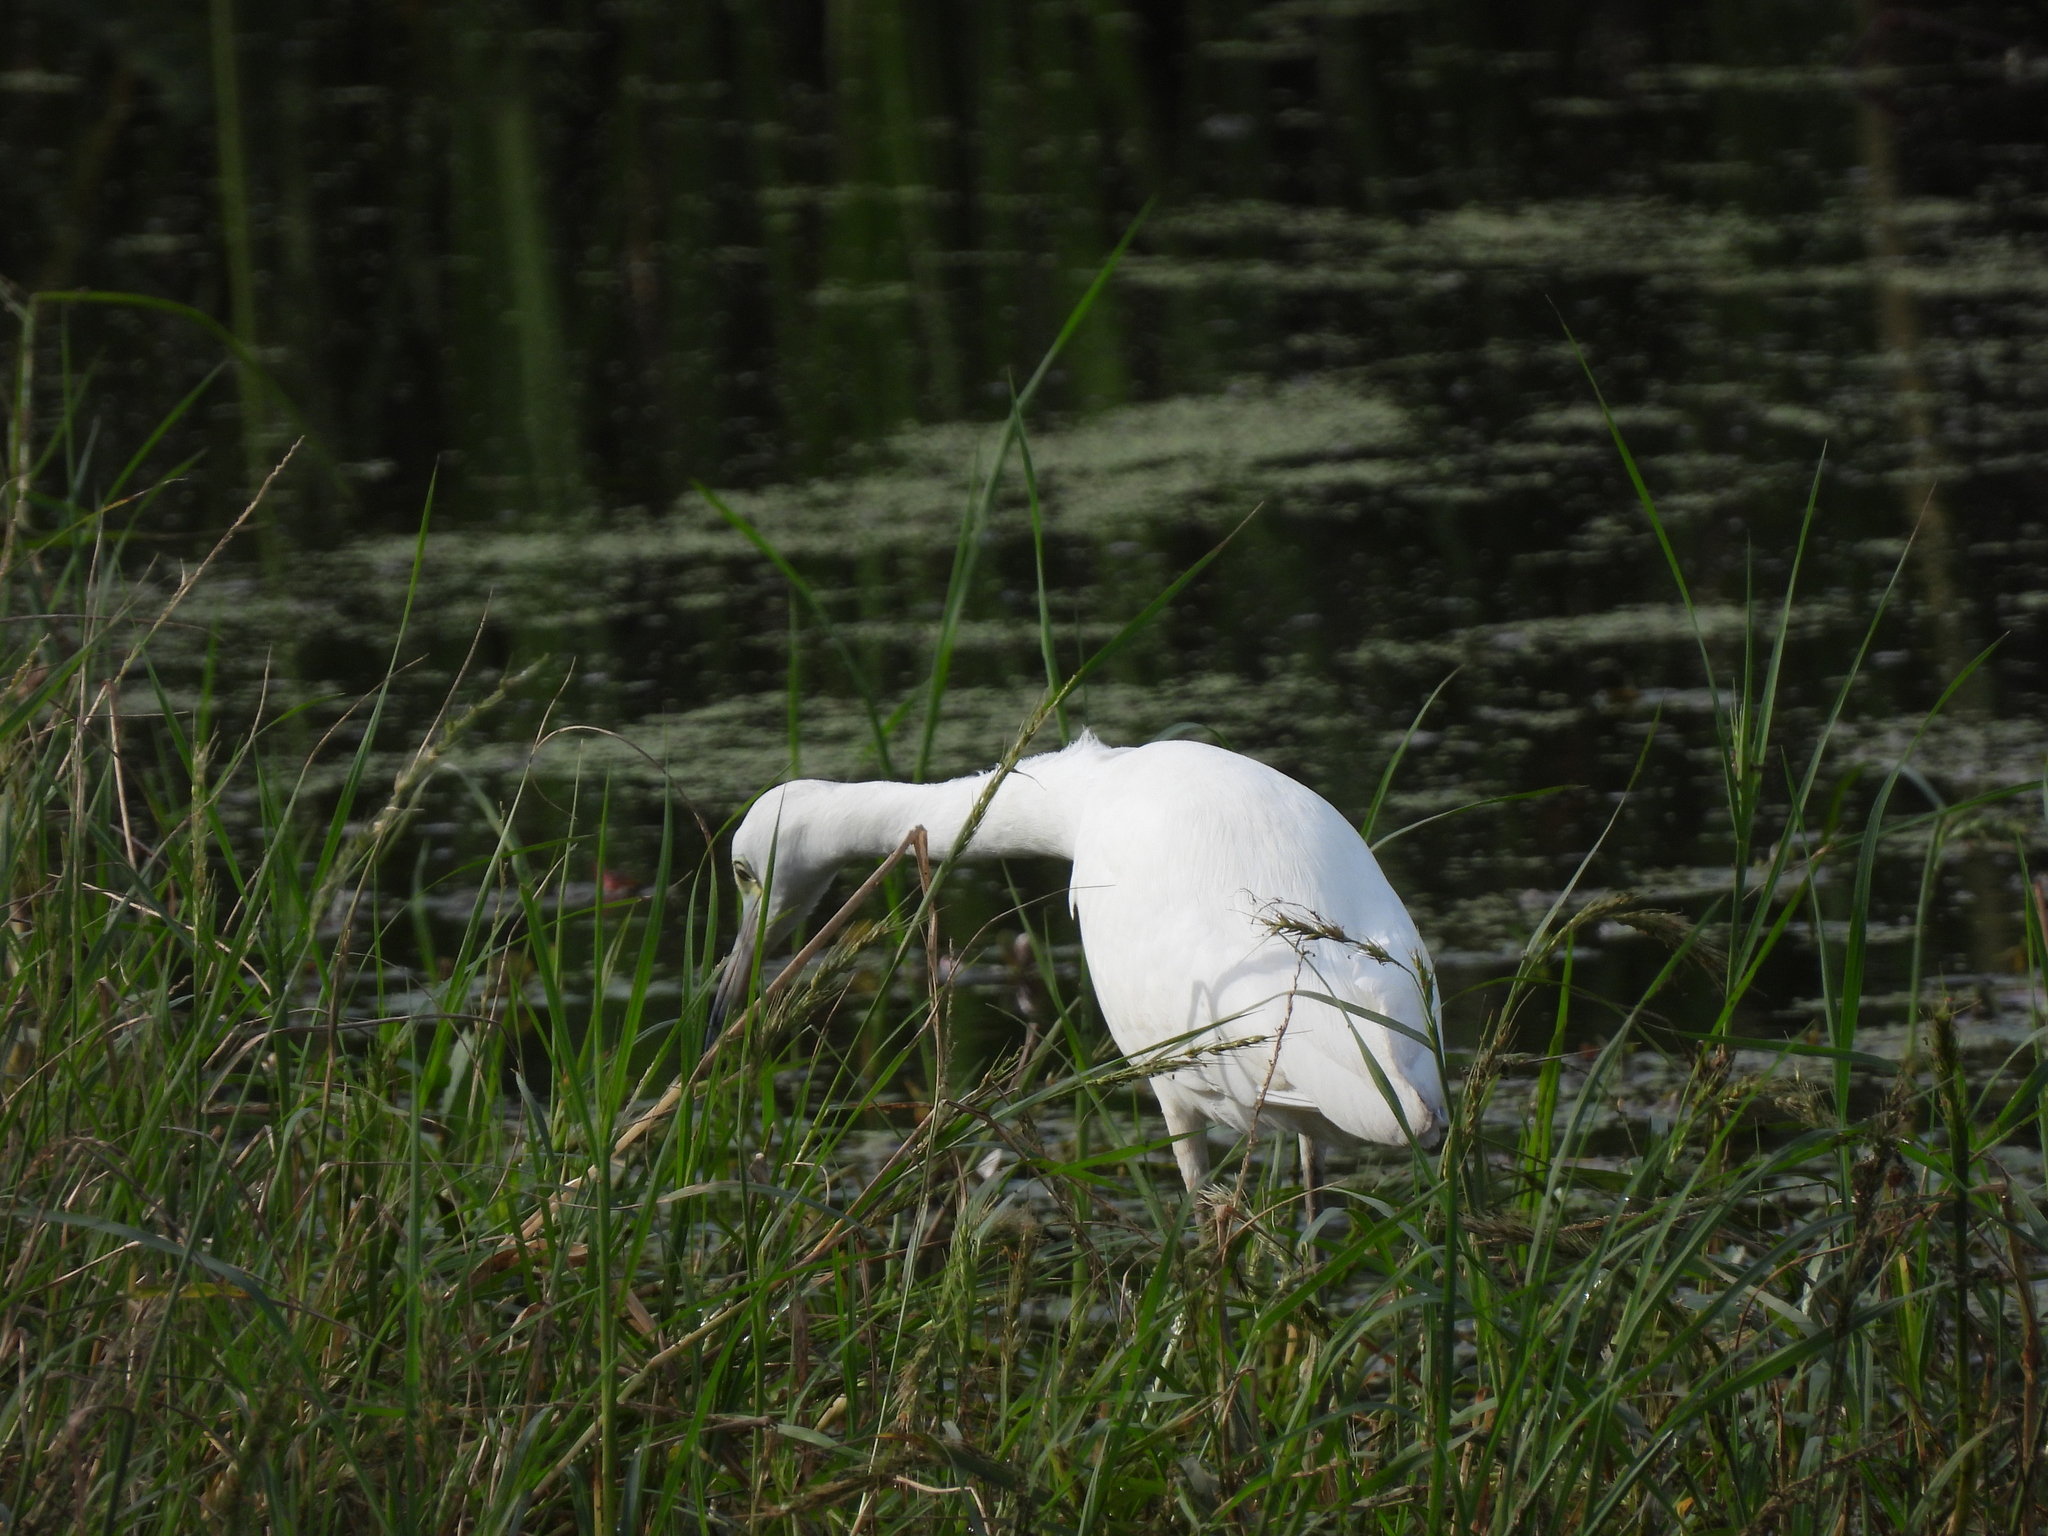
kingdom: Animalia
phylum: Chordata
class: Aves
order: Pelecaniformes
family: Ardeidae
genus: Egretta
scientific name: Egretta caerulea
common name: Little blue heron
